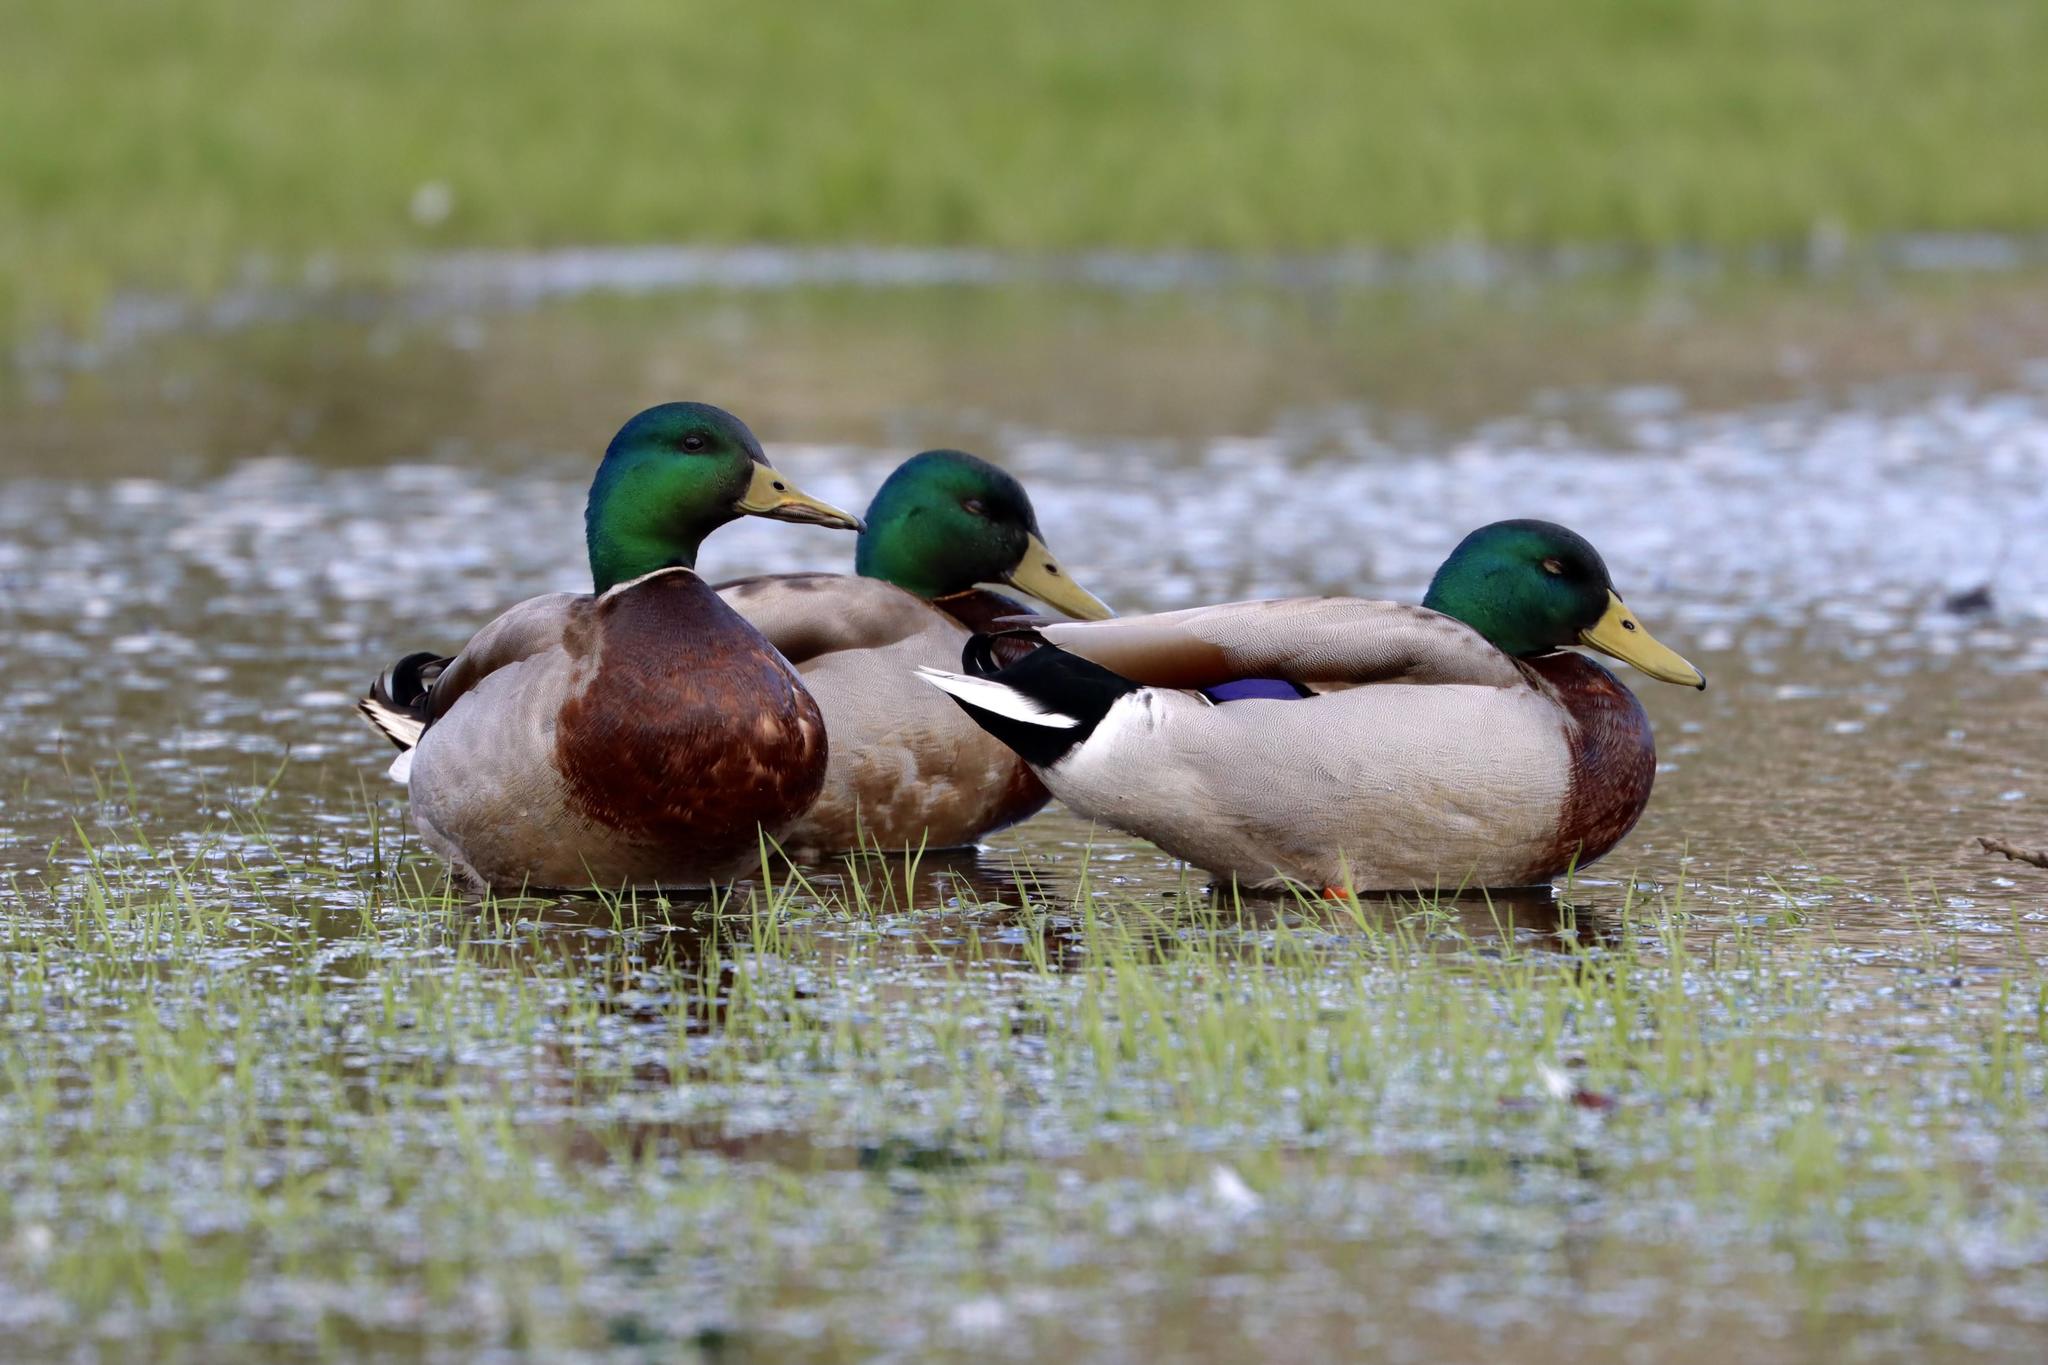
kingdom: Animalia
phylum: Chordata
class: Aves
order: Anseriformes
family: Anatidae
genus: Anas
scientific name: Anas platyrhynchos
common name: Mallard
